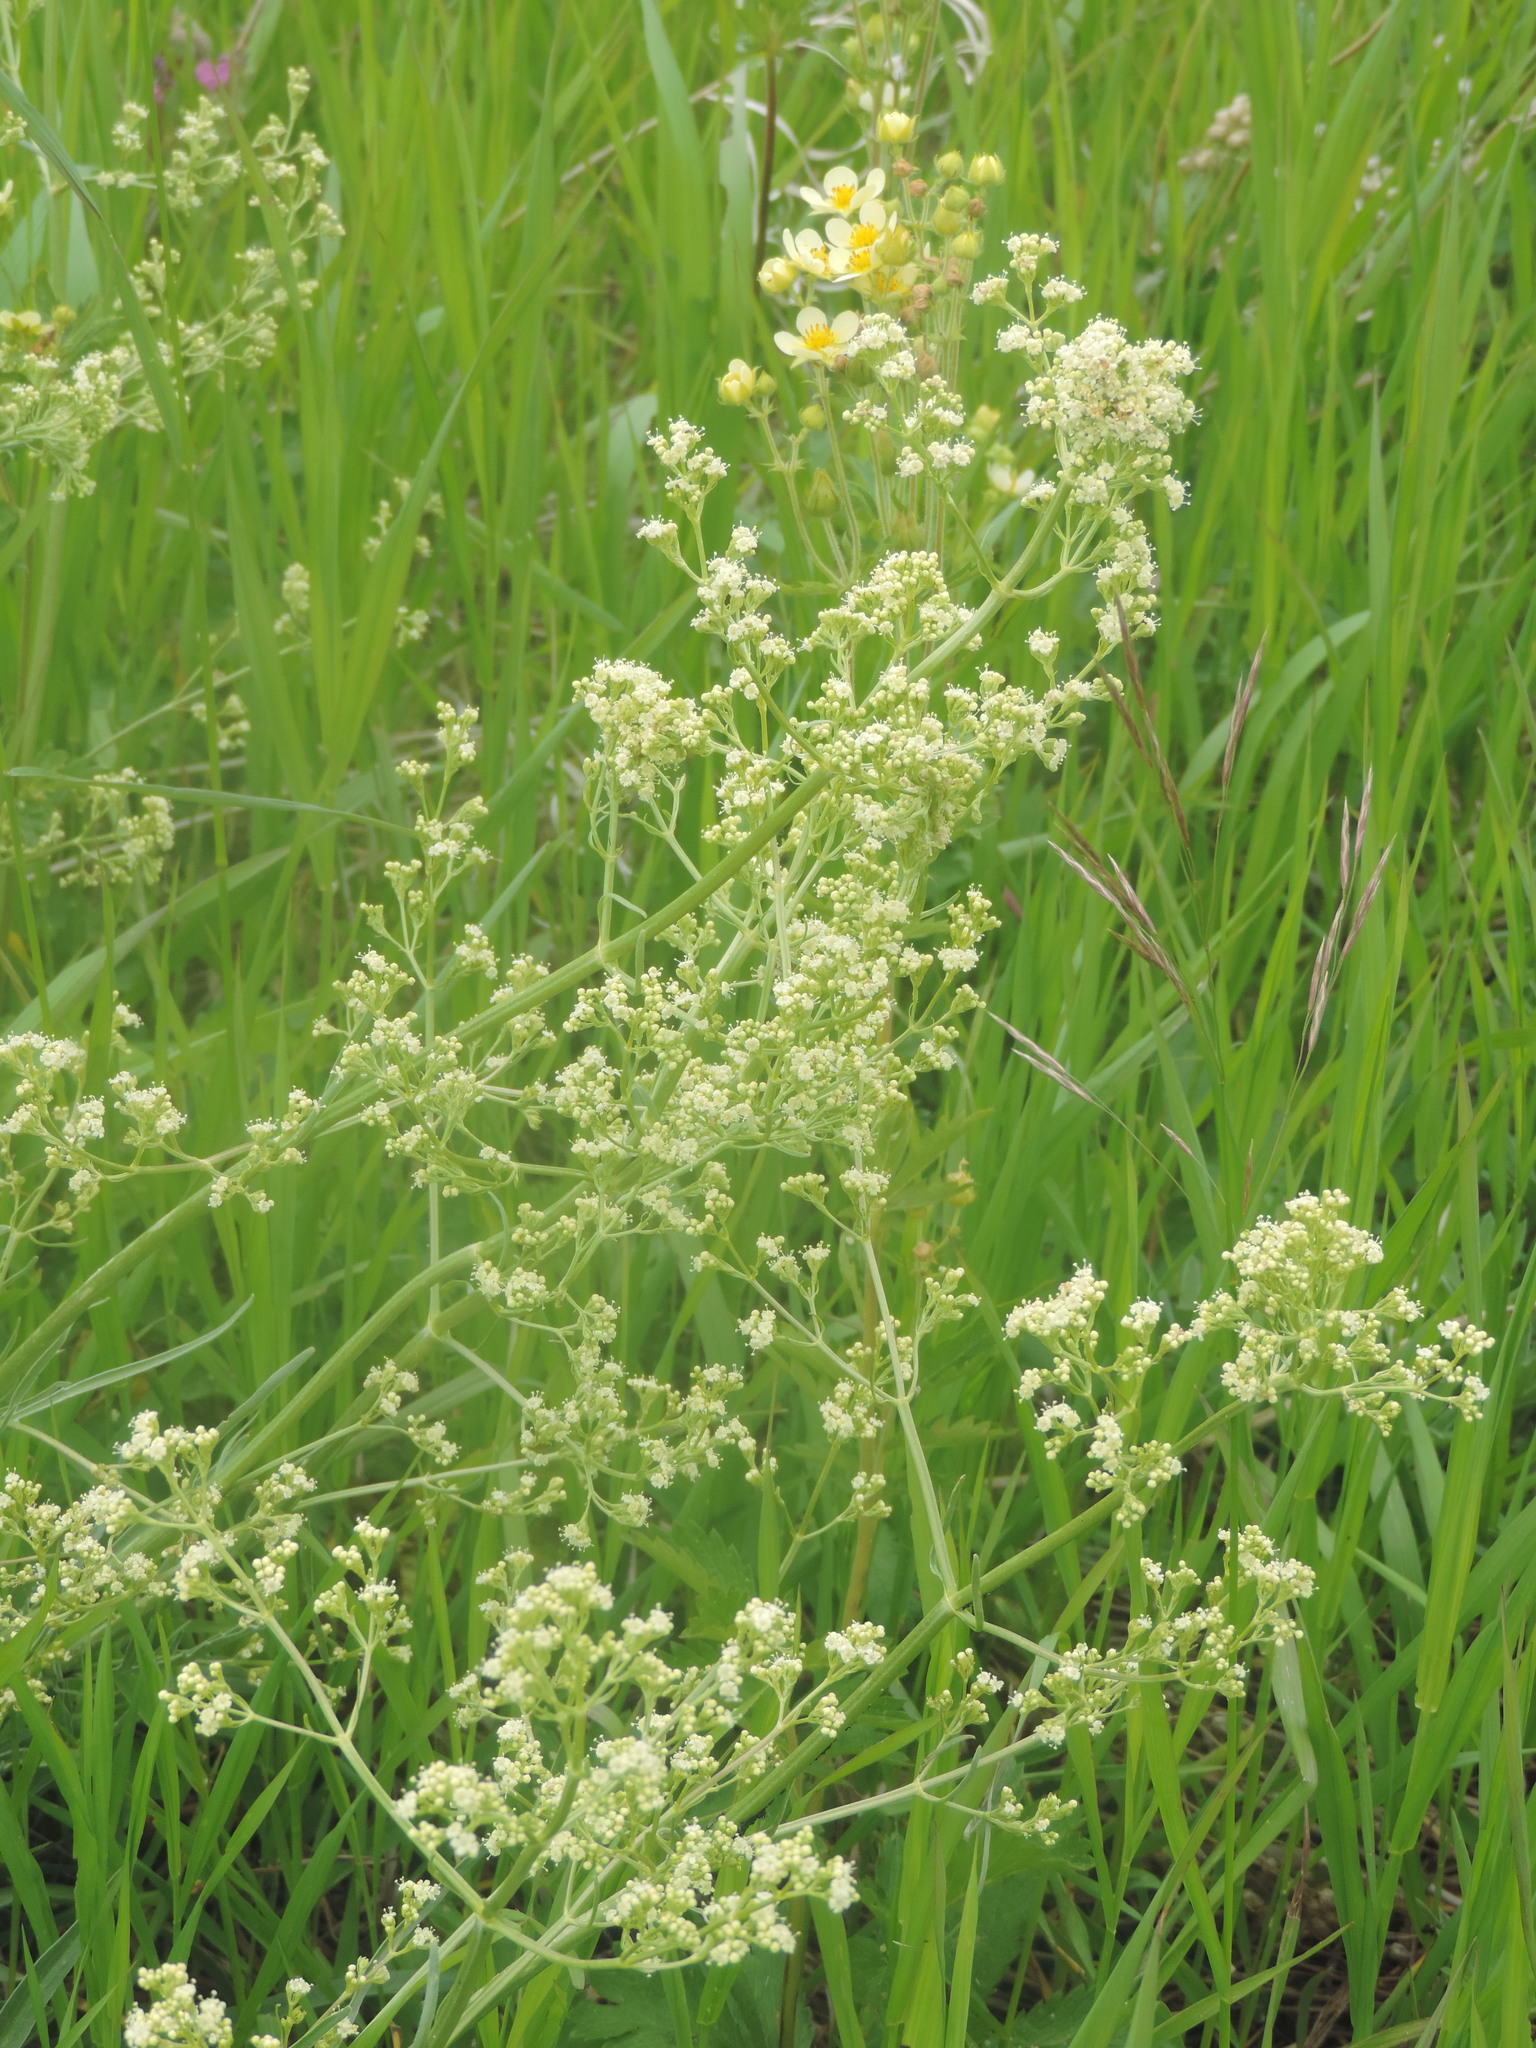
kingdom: Plantae
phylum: Tracheophyta
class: Magnoliopsida
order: Dipsacales
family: Caprifoliaceae
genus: Valeriana
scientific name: Valeriana edulis
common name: Taproot valerian
